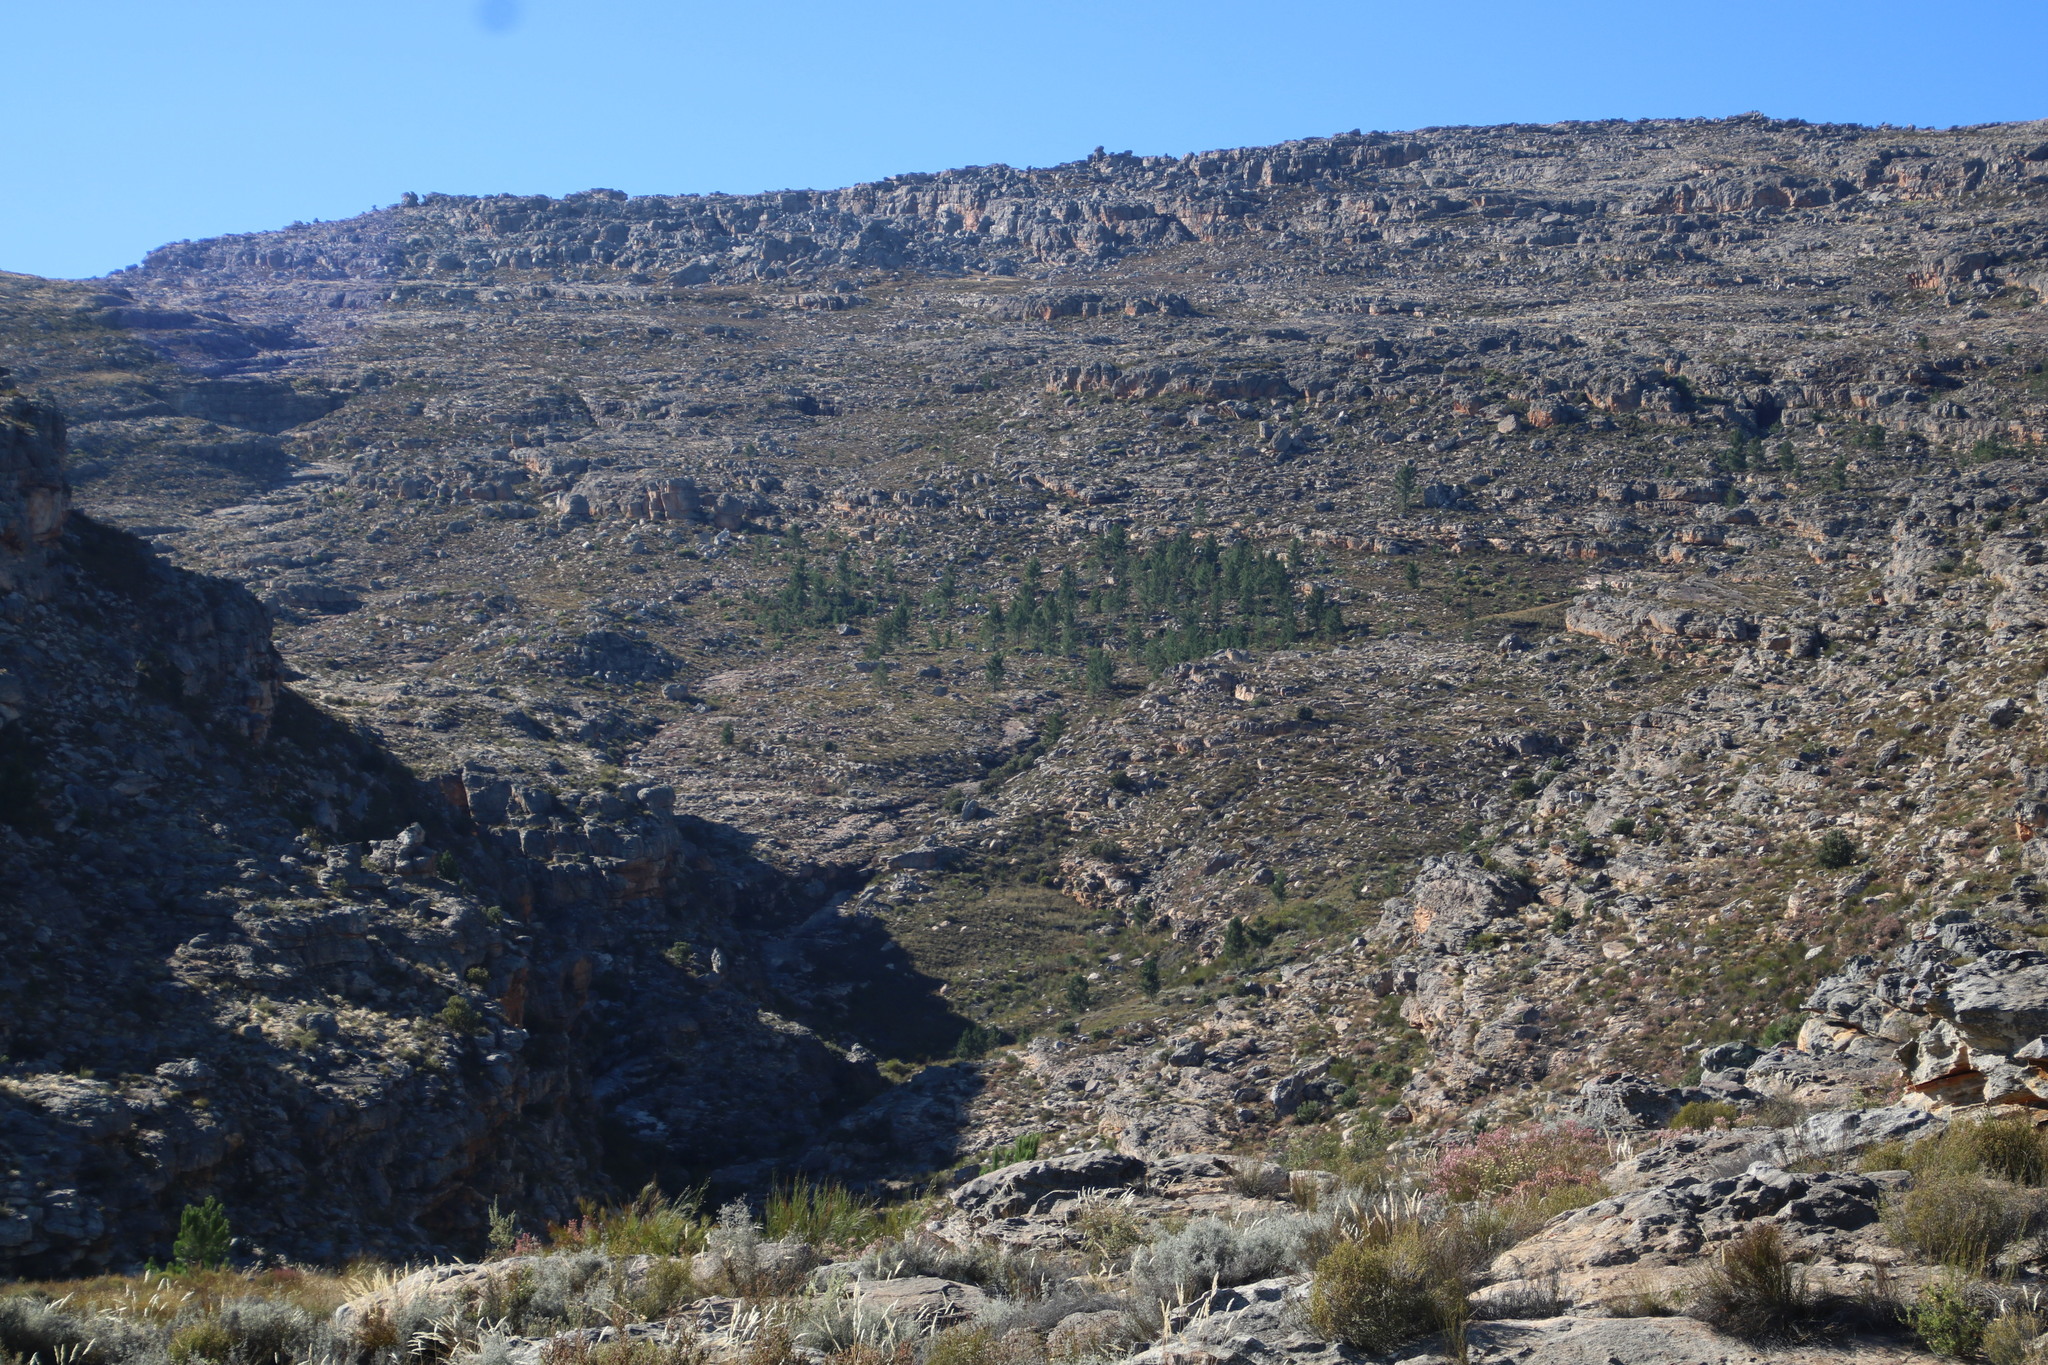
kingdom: Plantae
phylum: Tracheophyta
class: Pinopsida
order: Pinales
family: Pinaceae
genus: Pinus
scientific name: Pinus pinaster
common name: Maritime pine
